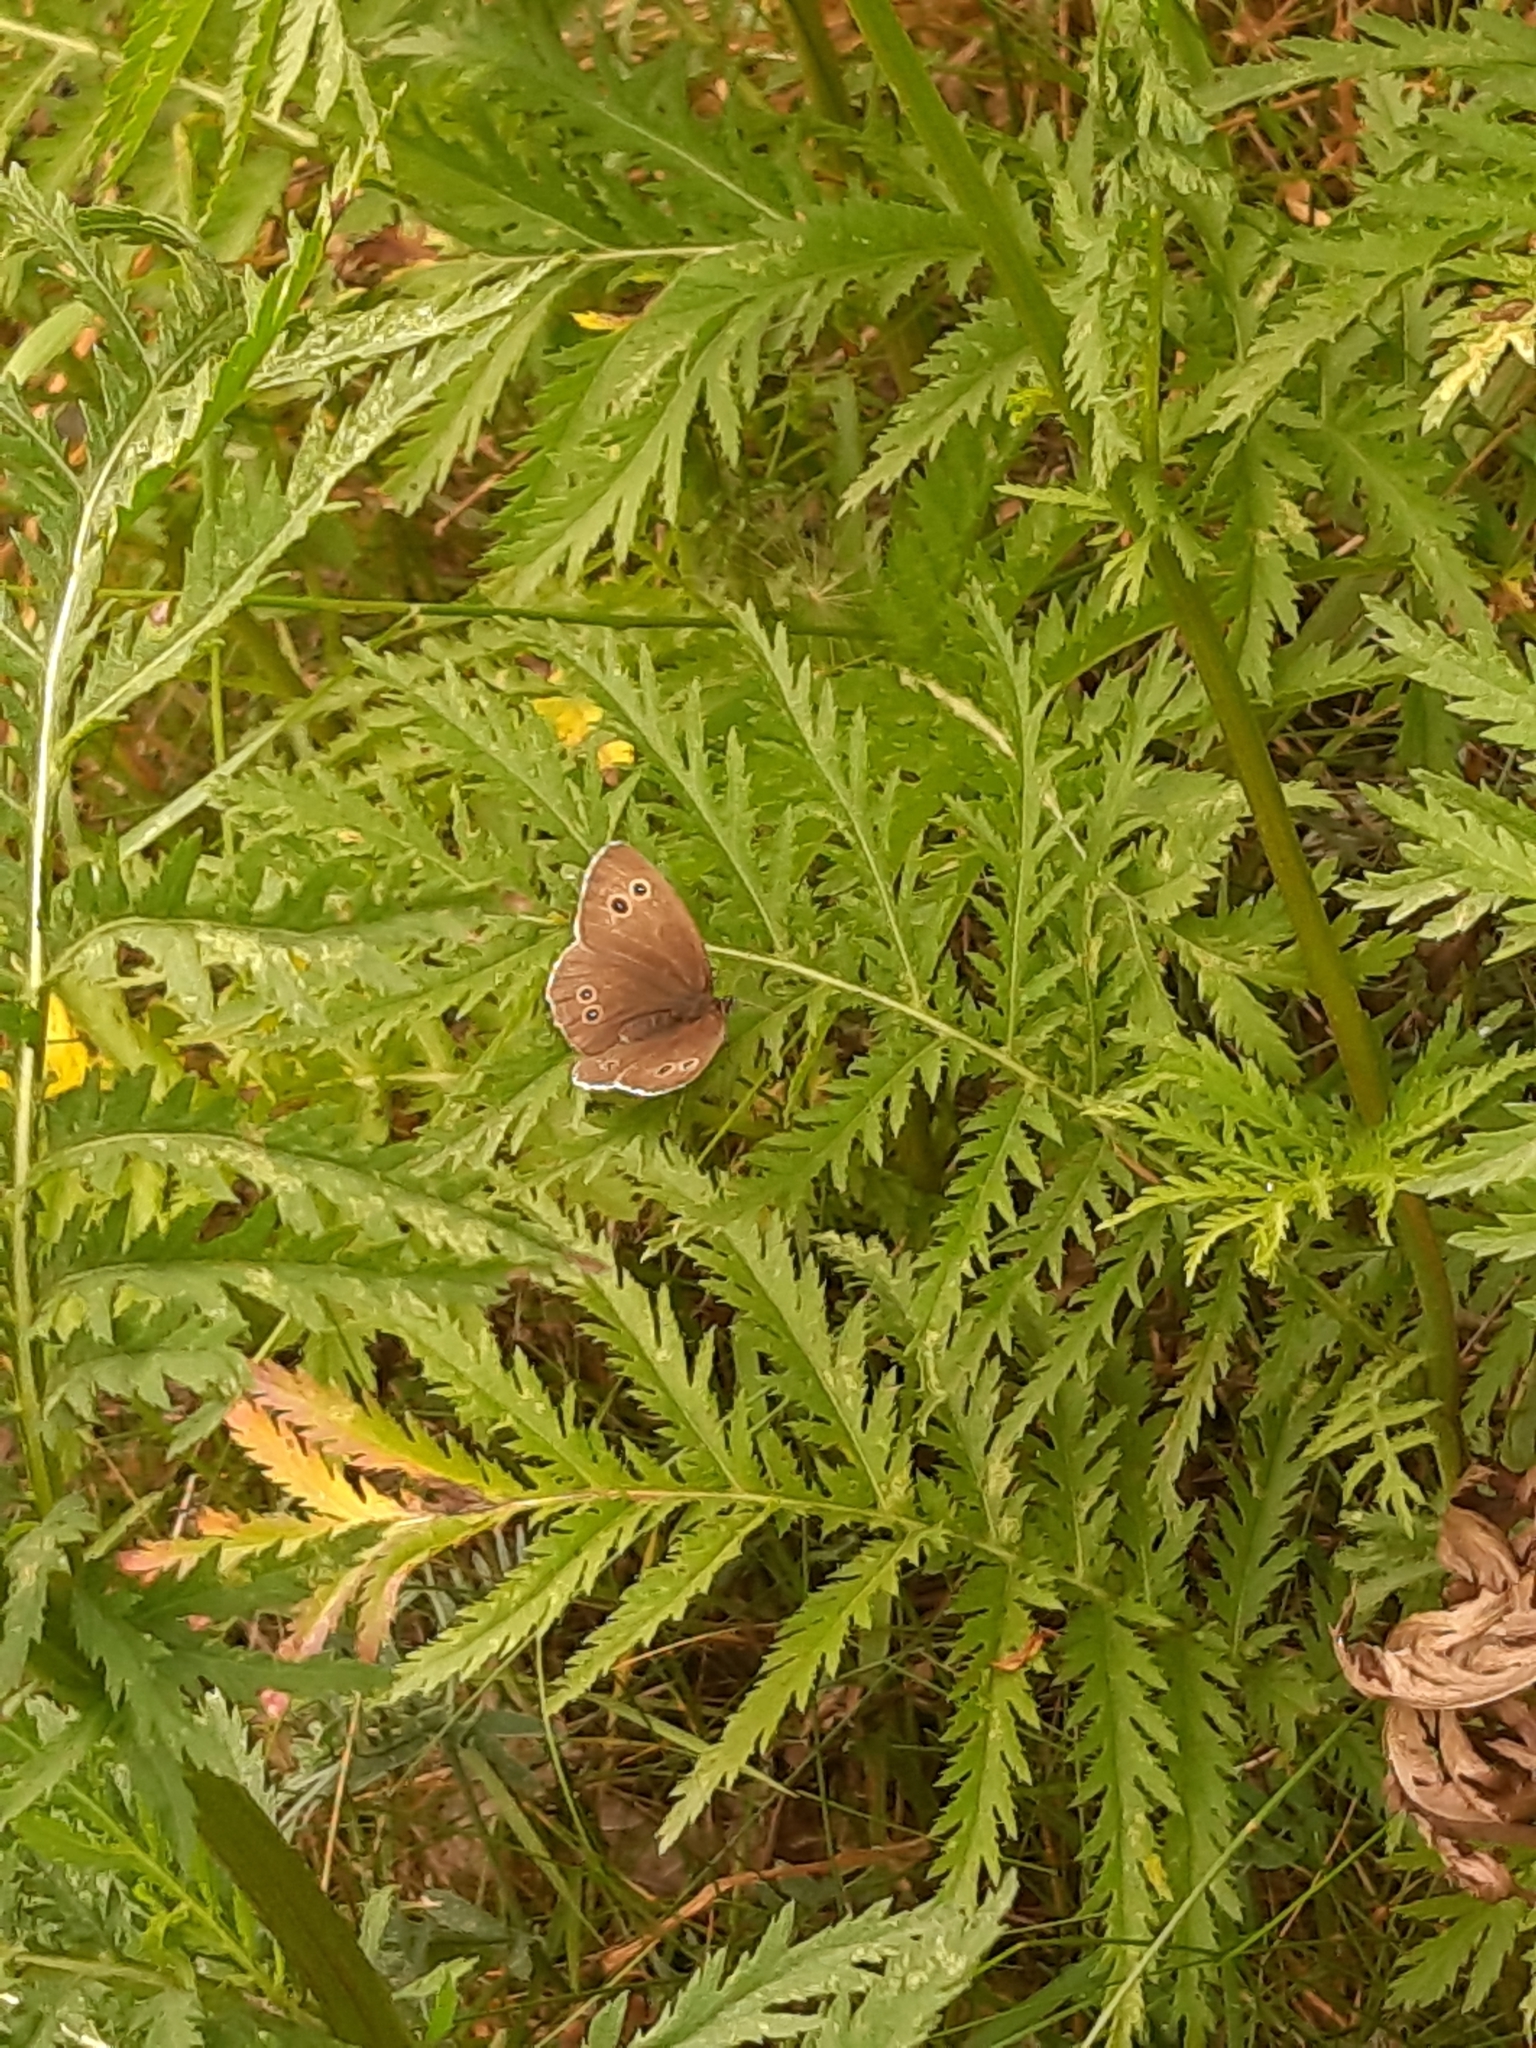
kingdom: Animalia
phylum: Arthropoda
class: Insecta
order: Lepidoptera
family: Nymphalidae
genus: Aphantopus
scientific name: Aphantopus hyperantus
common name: Ringlet
